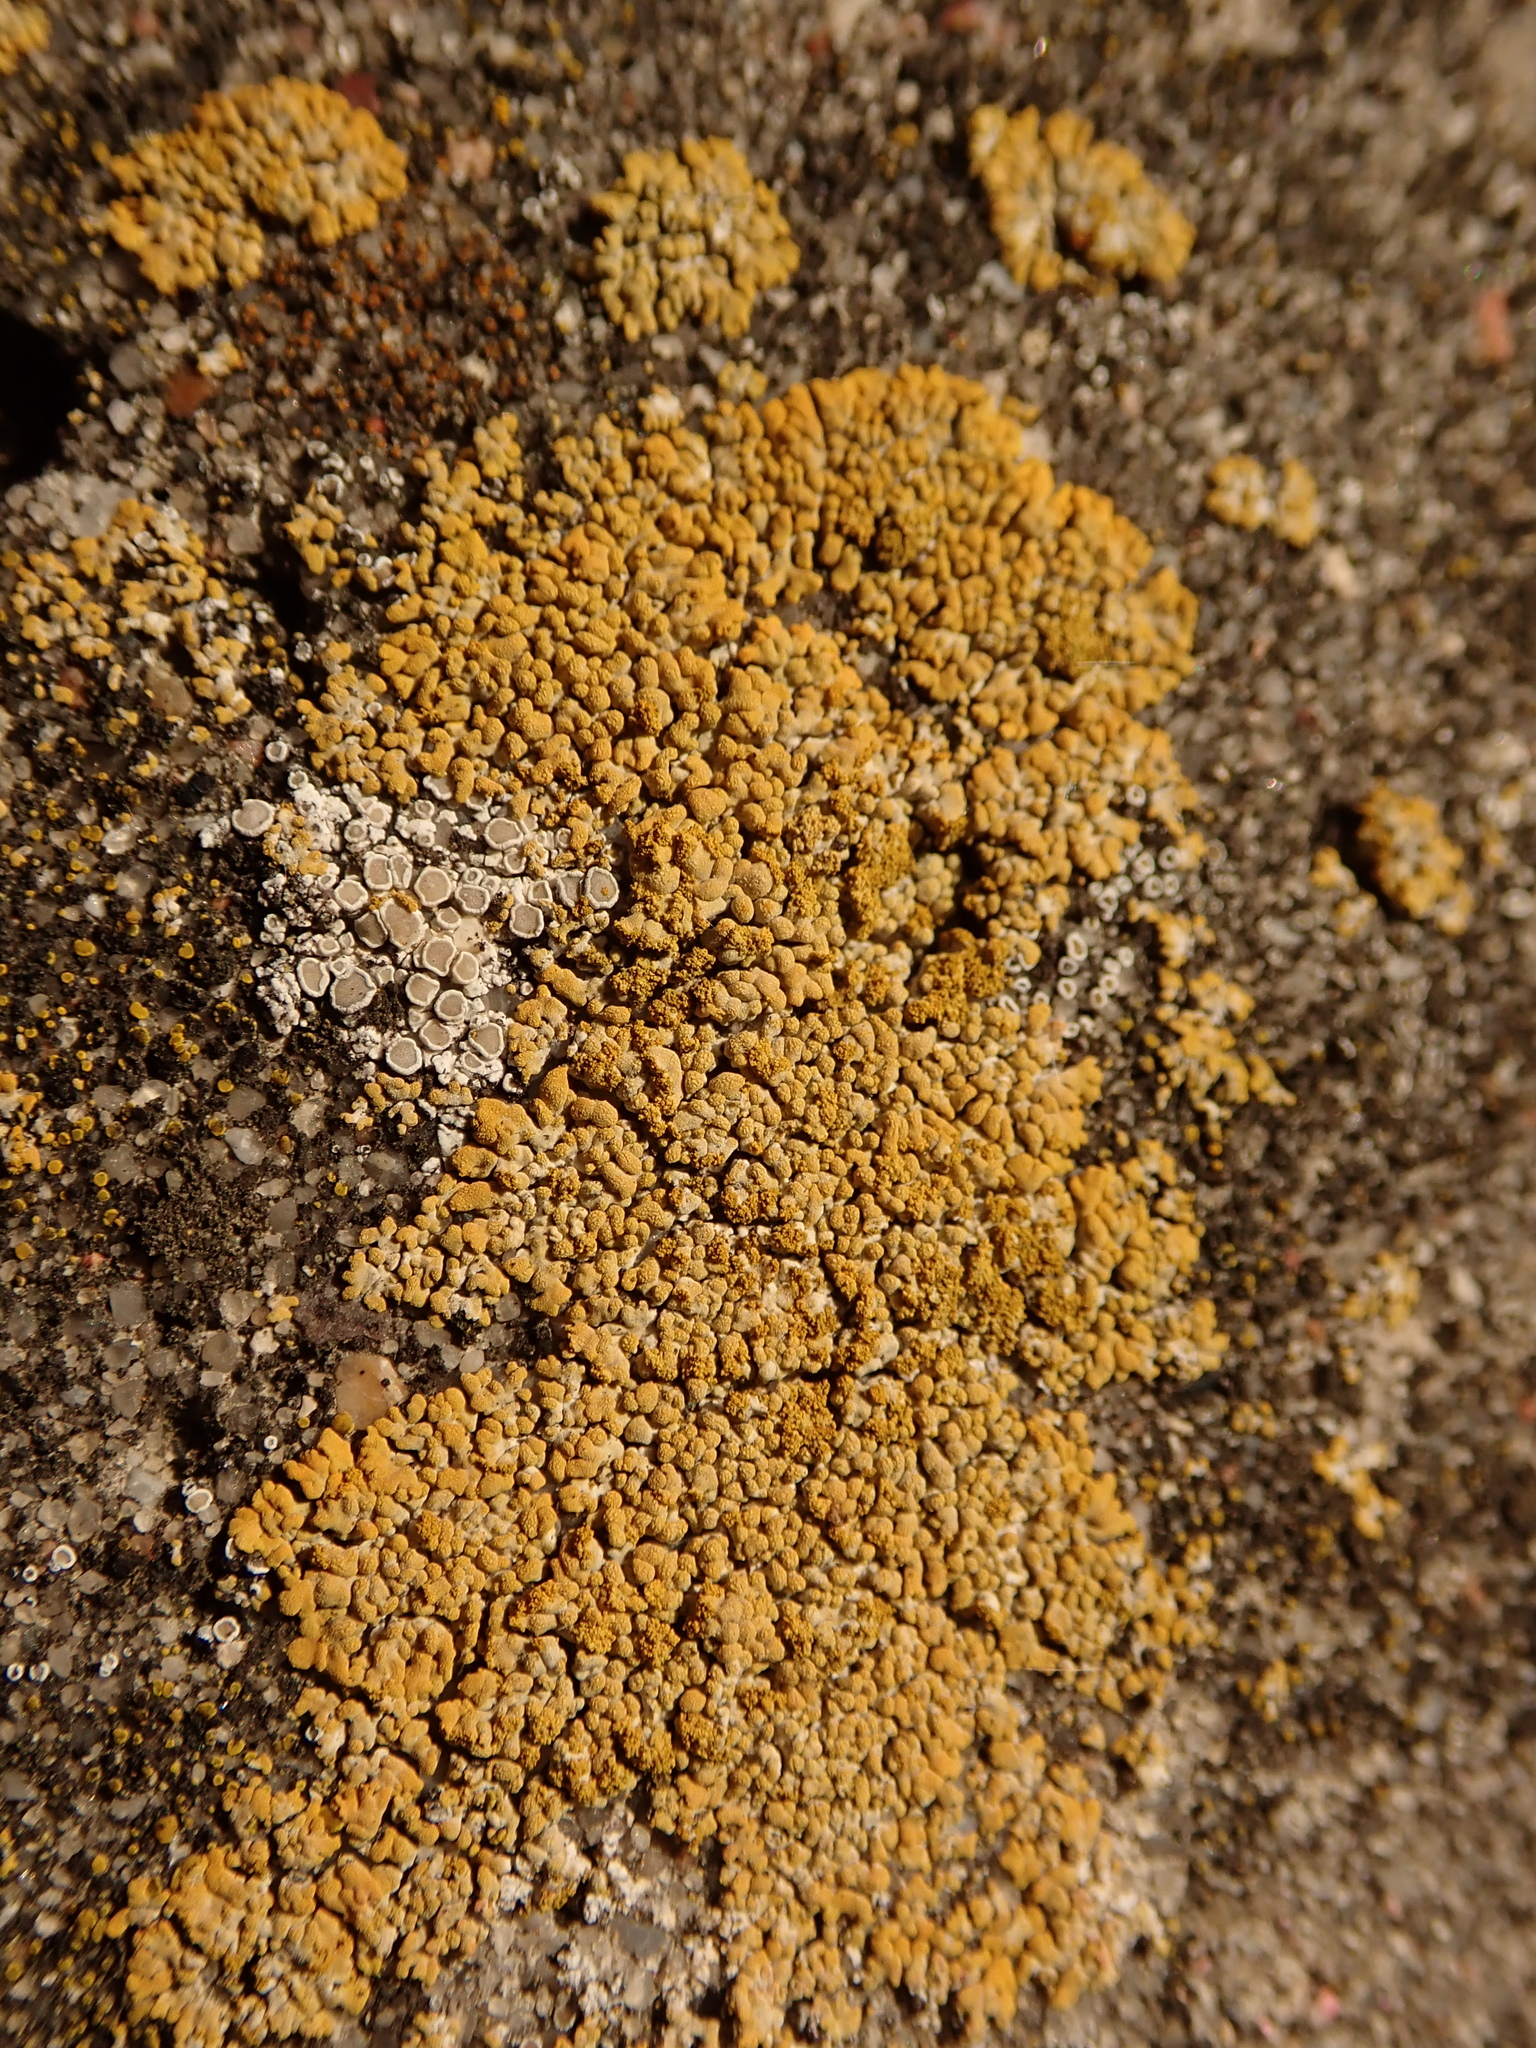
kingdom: Fungi
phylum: Ascomycota
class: Lecanoromycetes
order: Teloschistales
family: Teloschistaceae
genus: Calogaya
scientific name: Calogaya decipiens
